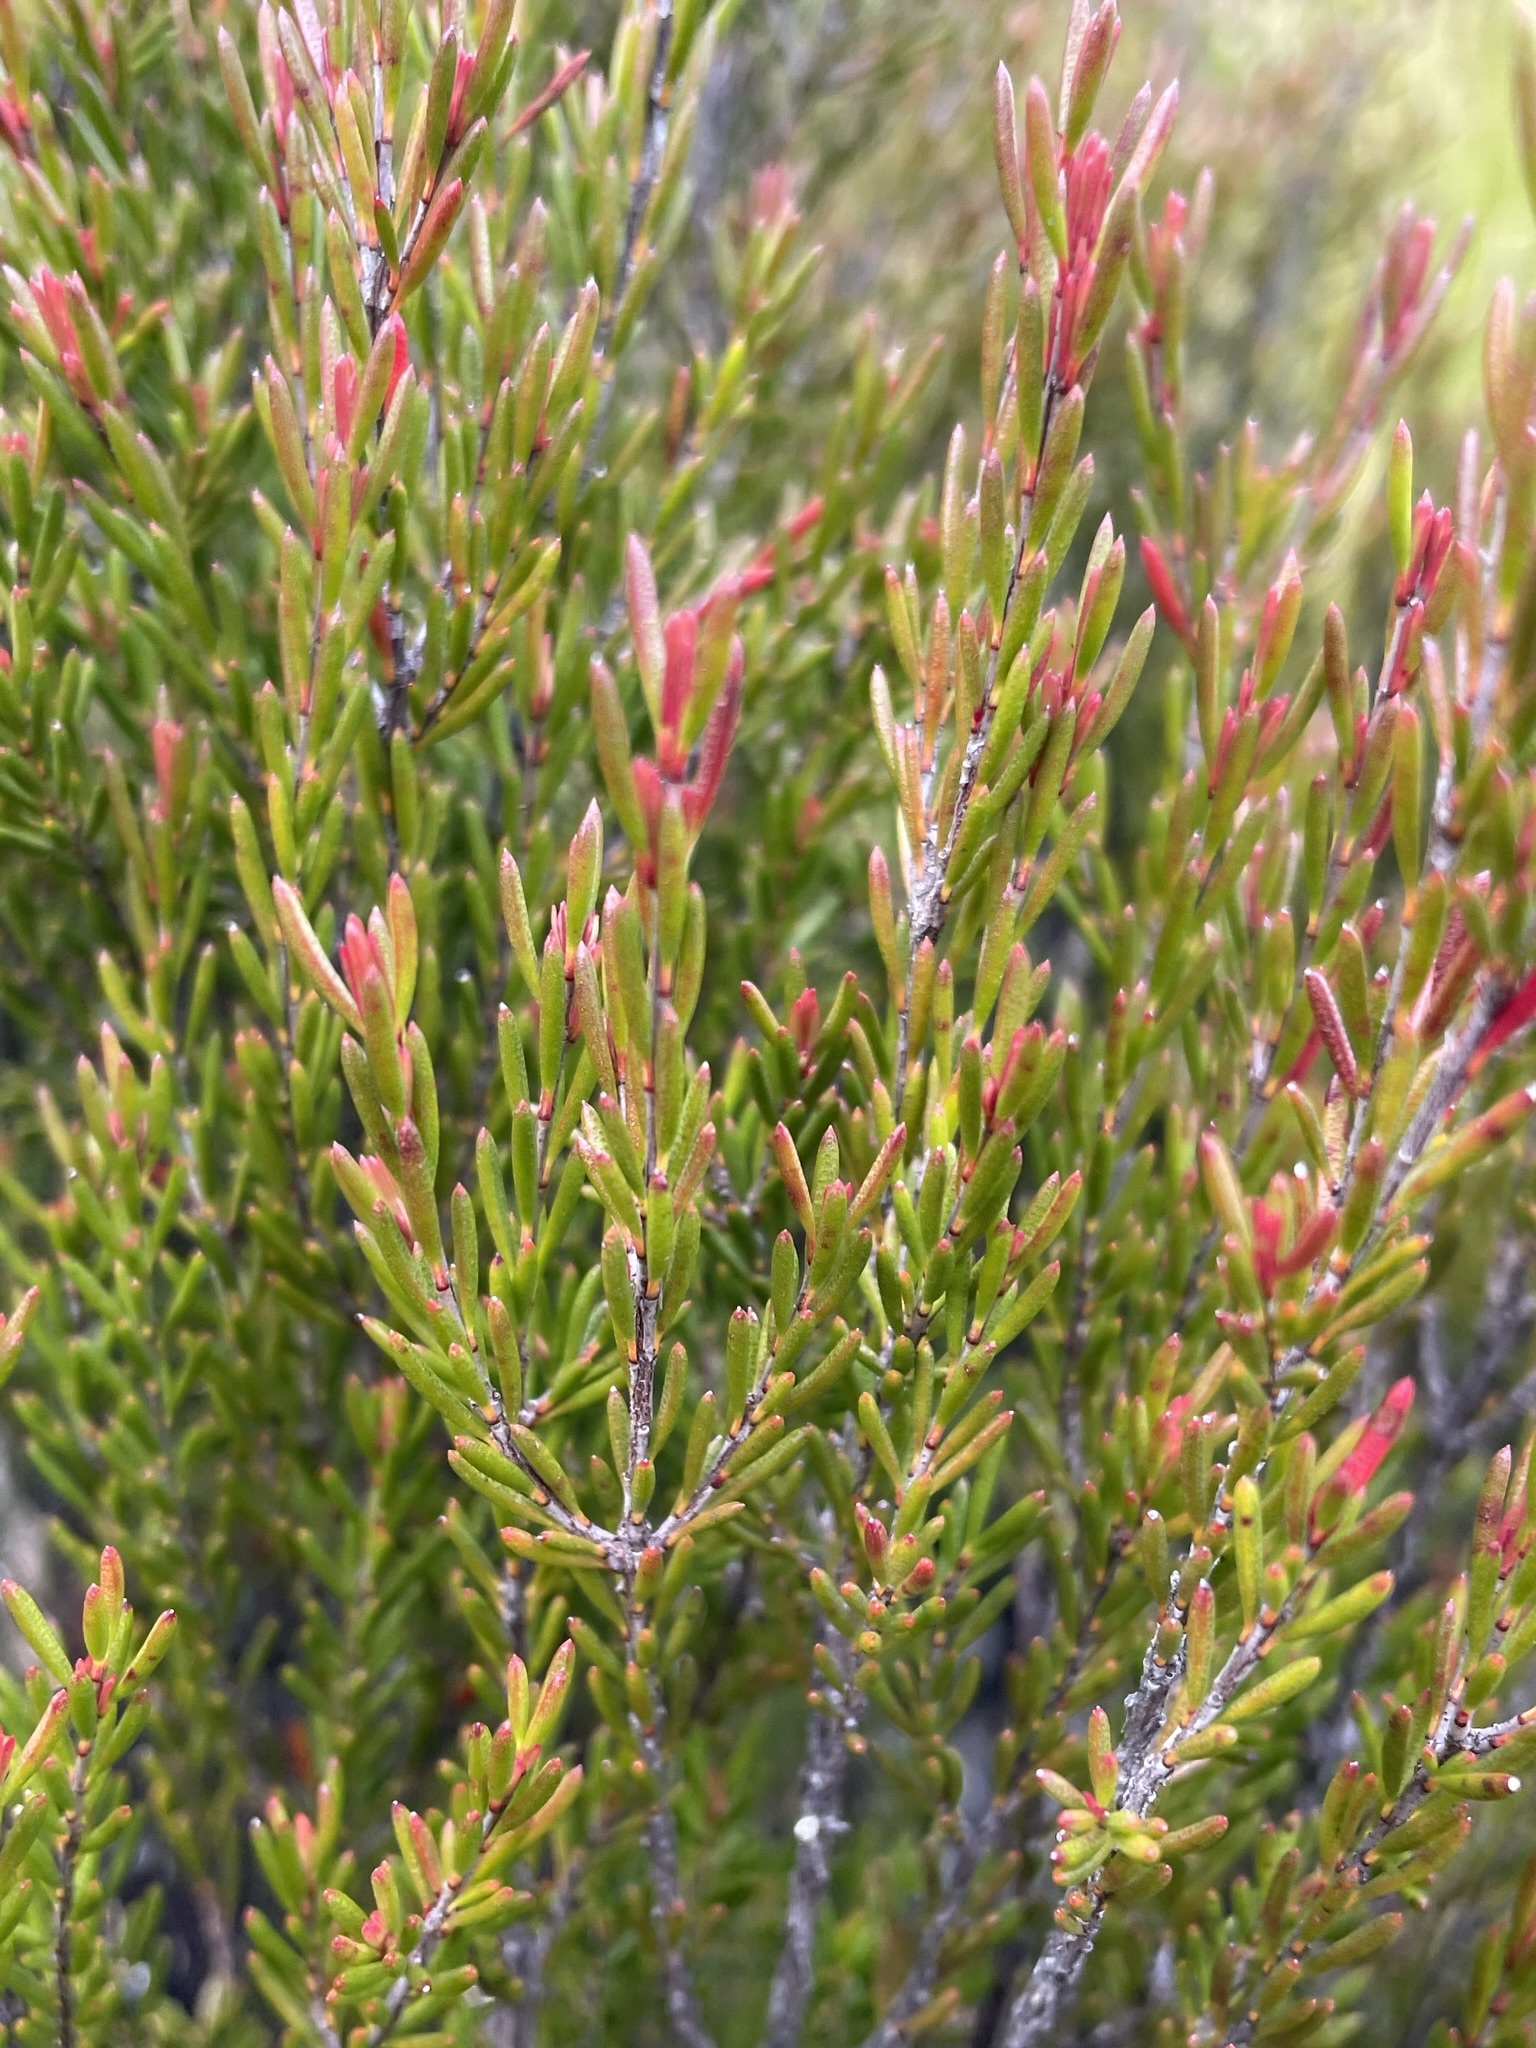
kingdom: Plantae
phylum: Tracheophyta
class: Magnoliopsida
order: Myrtales
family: Myrtaceae
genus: Baeckea
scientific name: Baeckea leptocaulis
